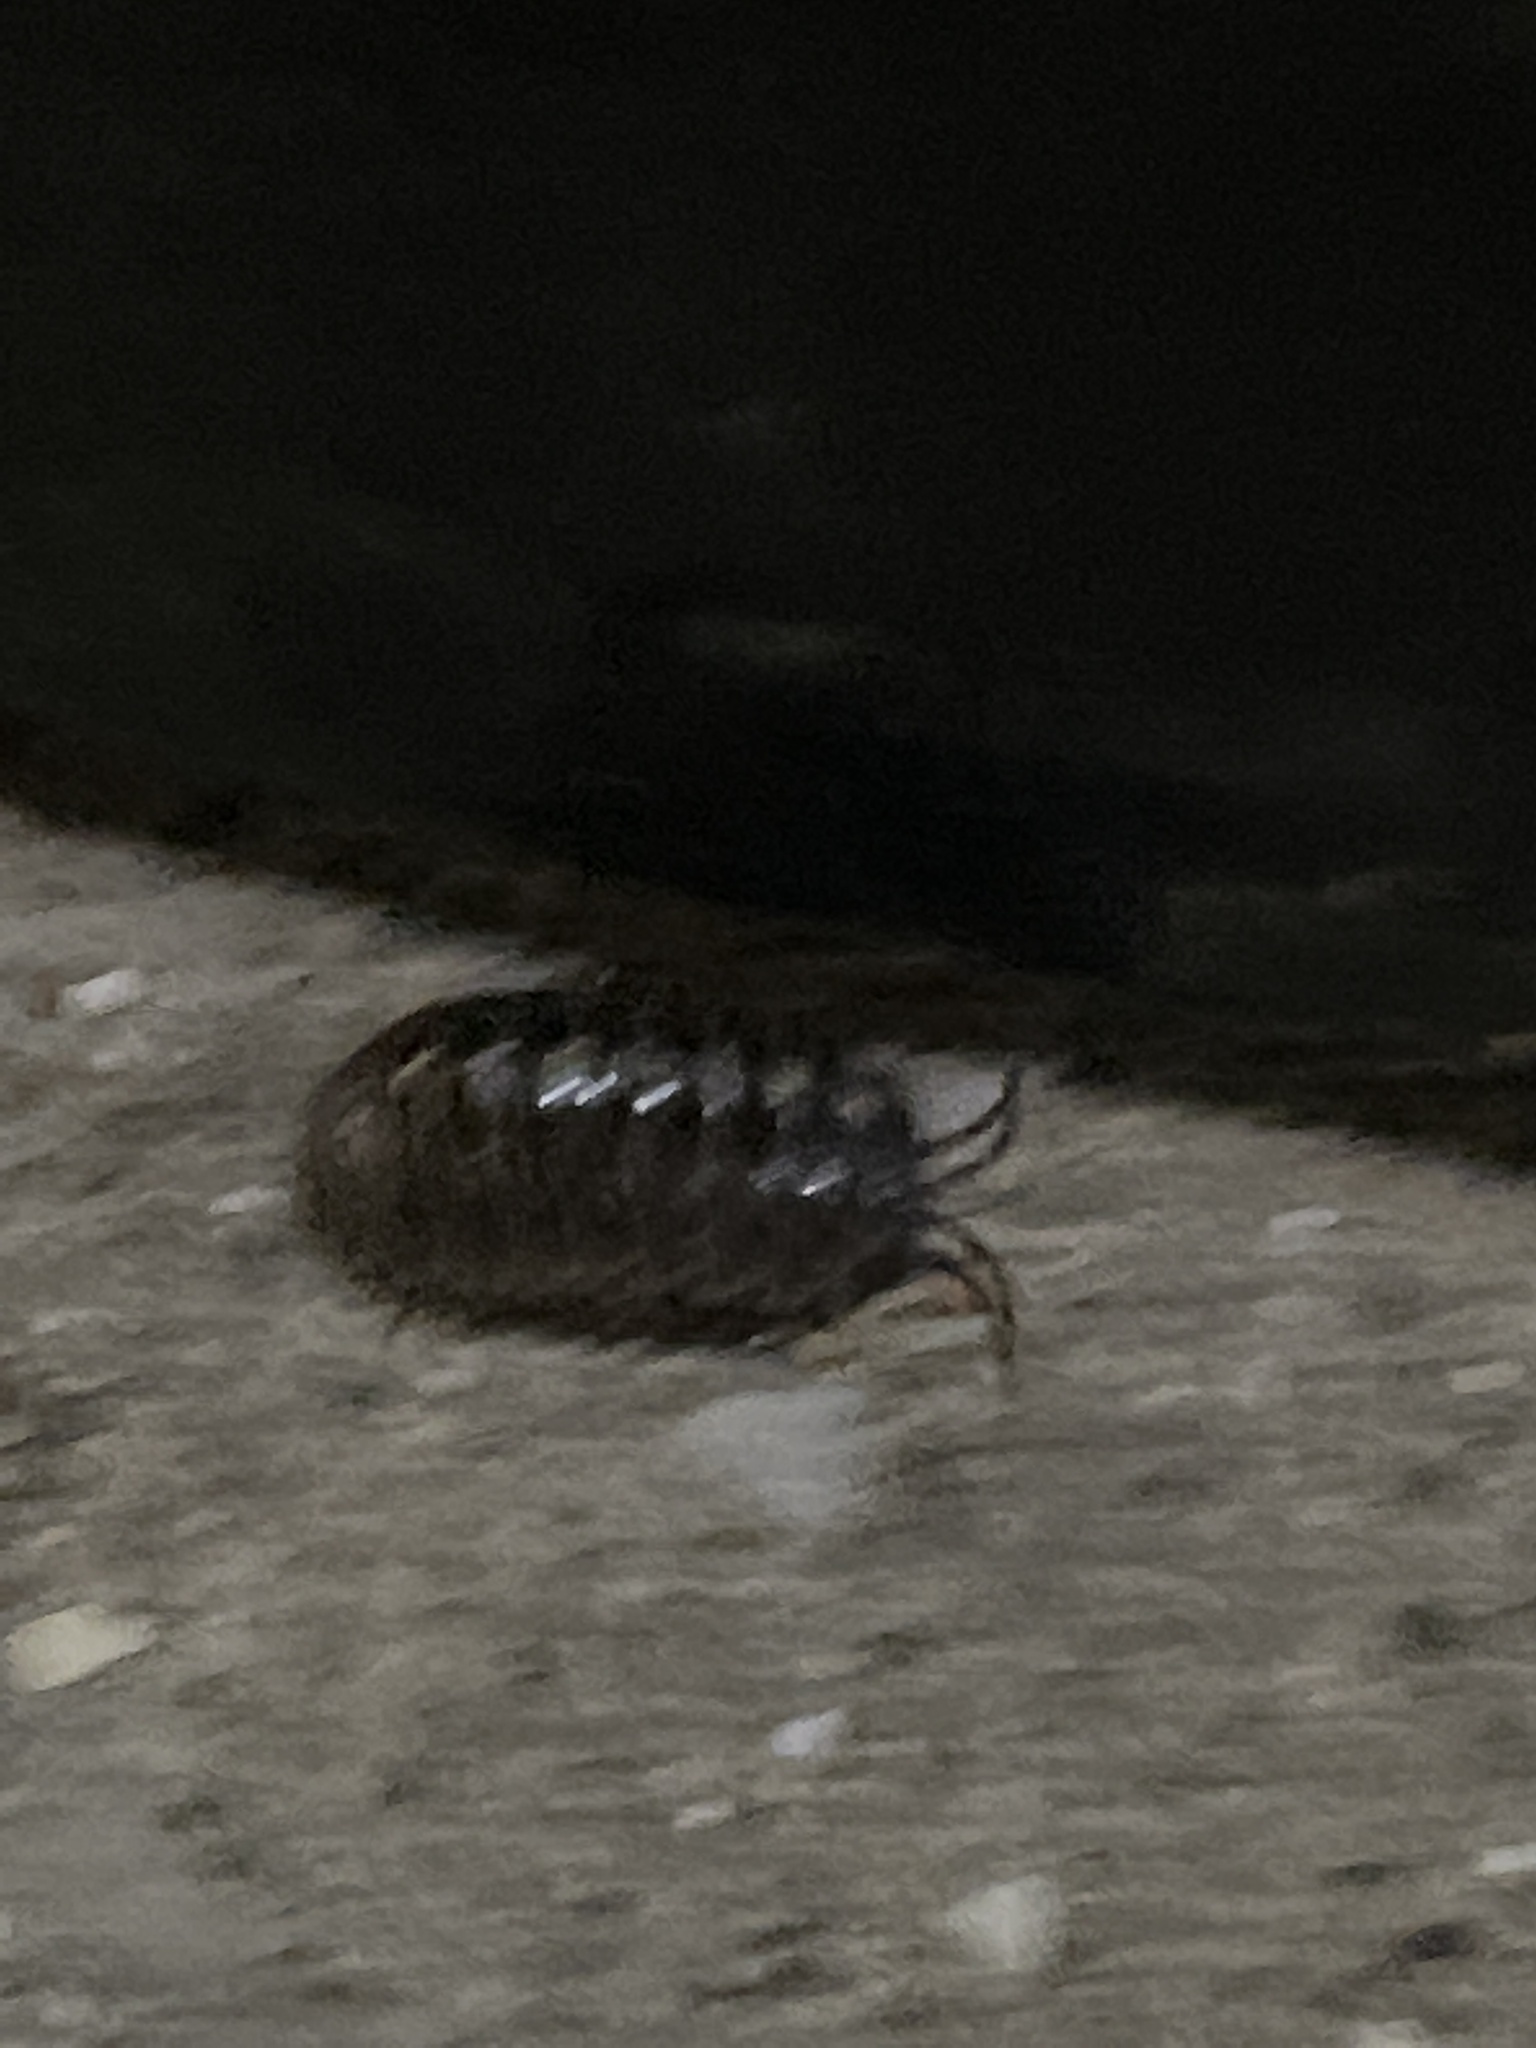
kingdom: Animalia
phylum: Arthropoda
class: Malacostraca
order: Isopoda
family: Armadillidiidae
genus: Armadillidium
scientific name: Armadillidium vulgare
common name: Common pill woodlouse
